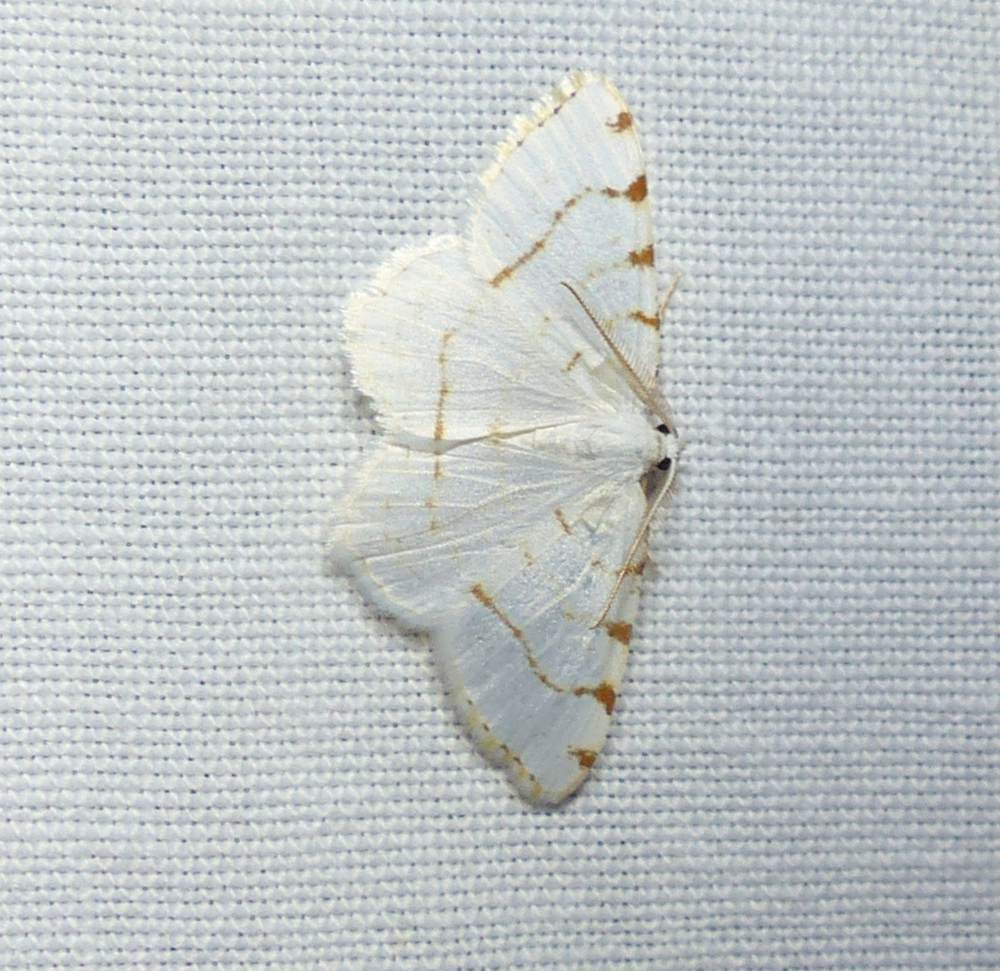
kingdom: Animalia
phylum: Arthropoda
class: Insecta
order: Lepidoptera
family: Geometridae
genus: Macaria
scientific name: Macaria pustularia
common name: Lesser maple spanworm moth
